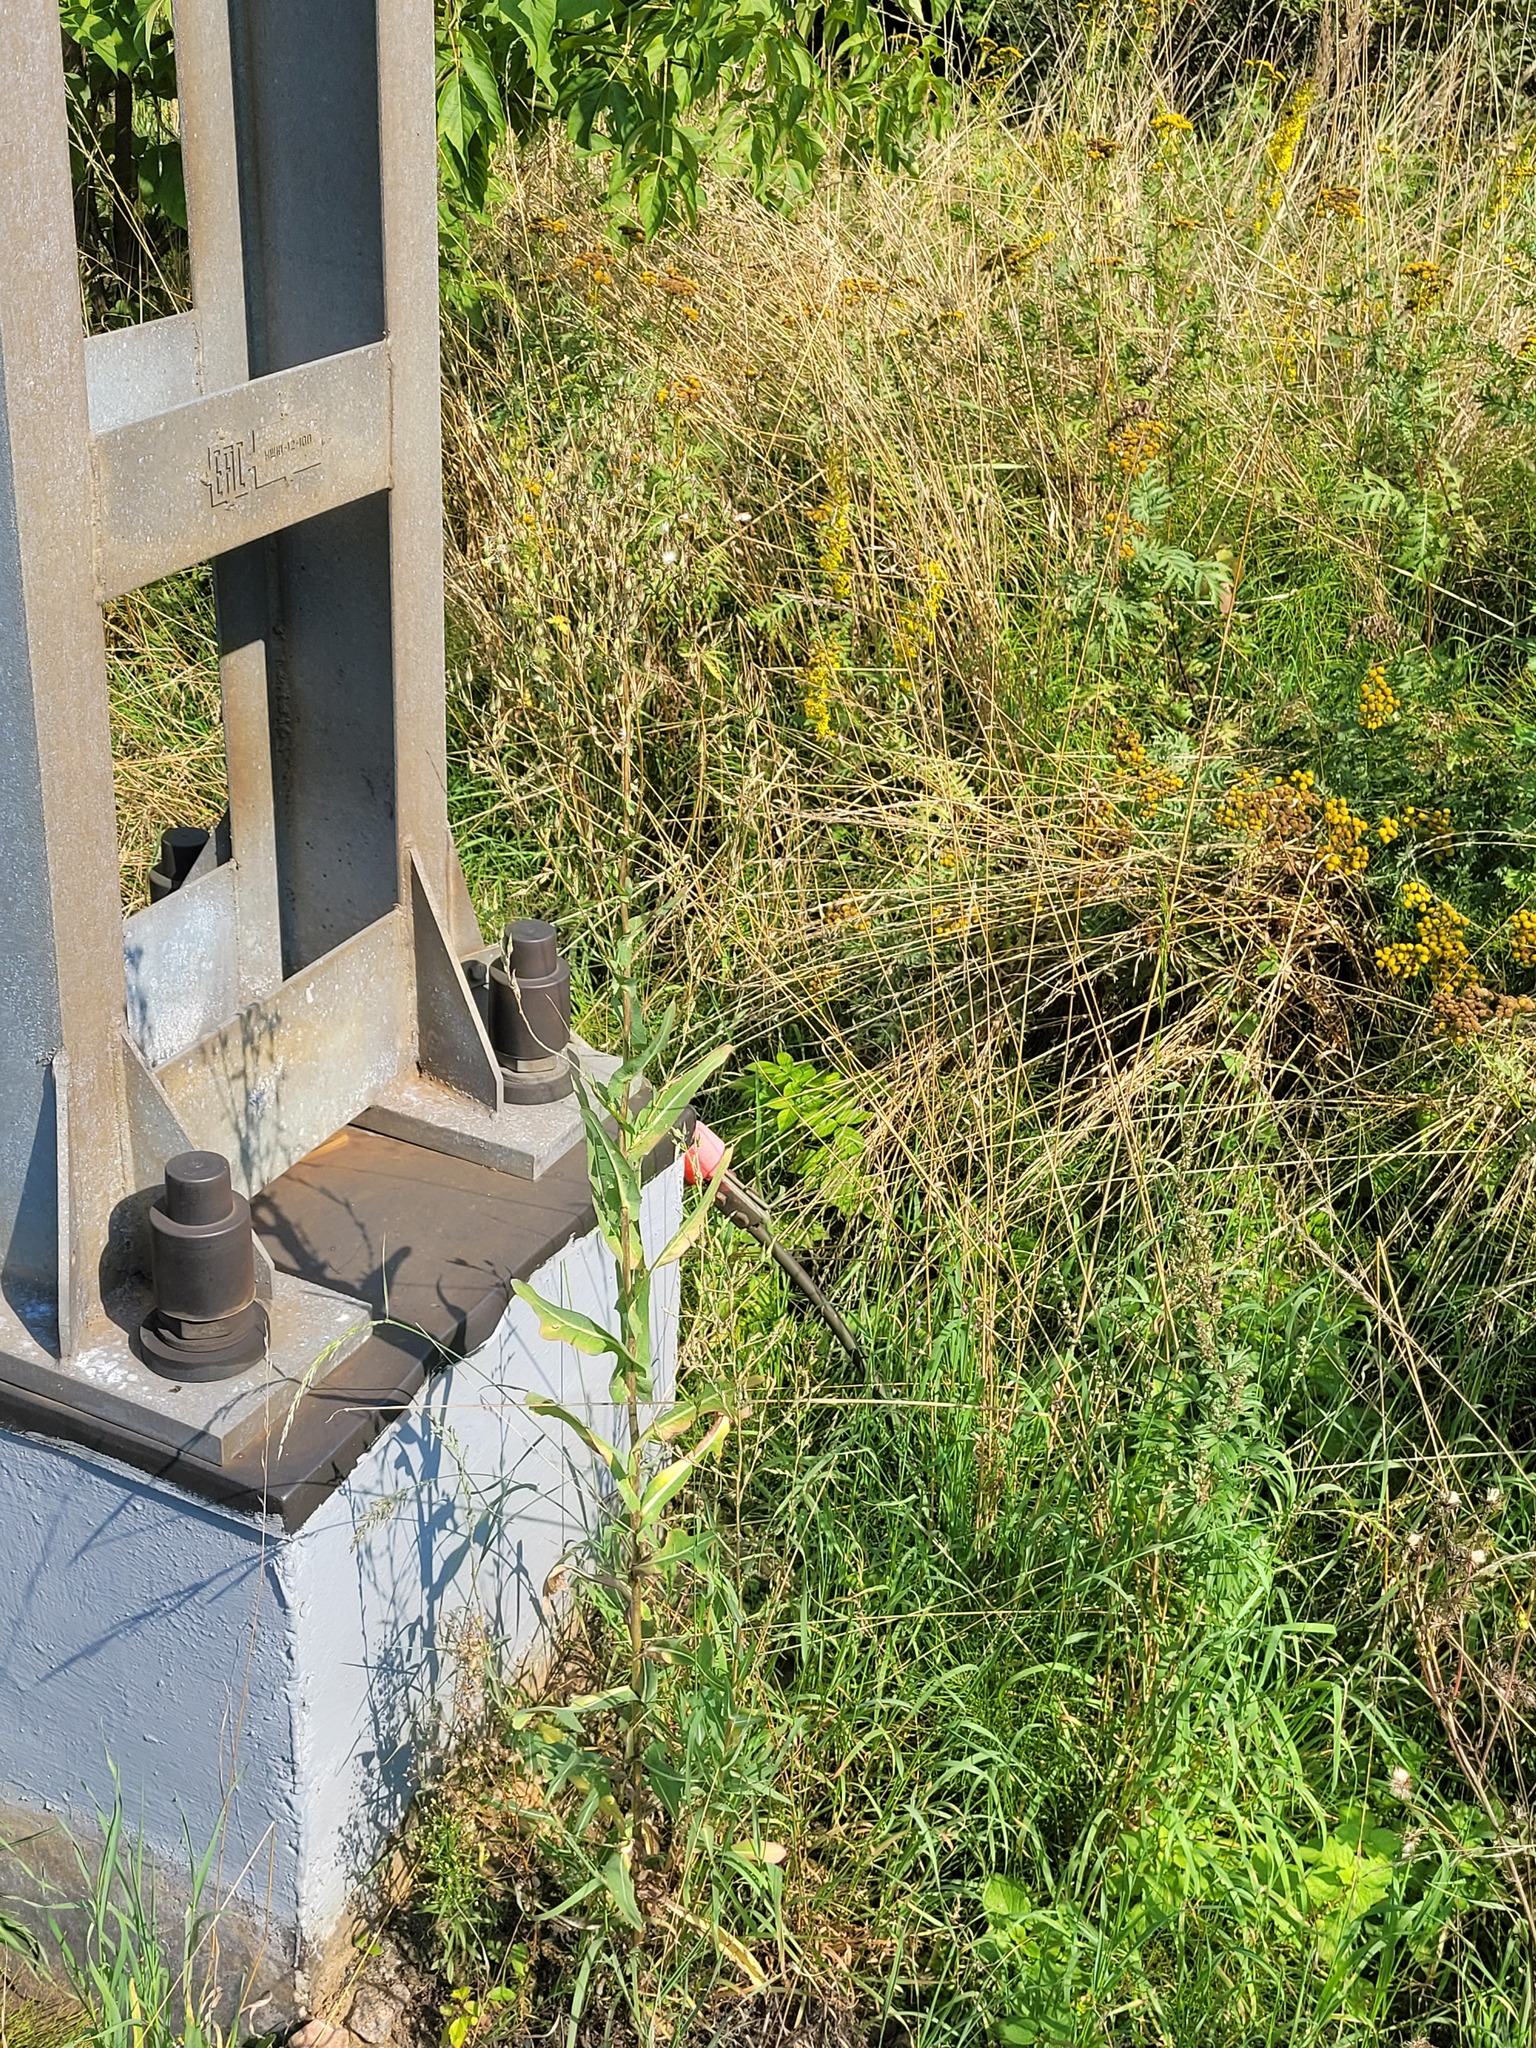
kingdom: Plantae
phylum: Tracheophyta
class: Magnoliopsida
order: Asterales
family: Asteraceae
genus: Lactuca
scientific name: Lactuca serriola
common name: Prickly lettuce
